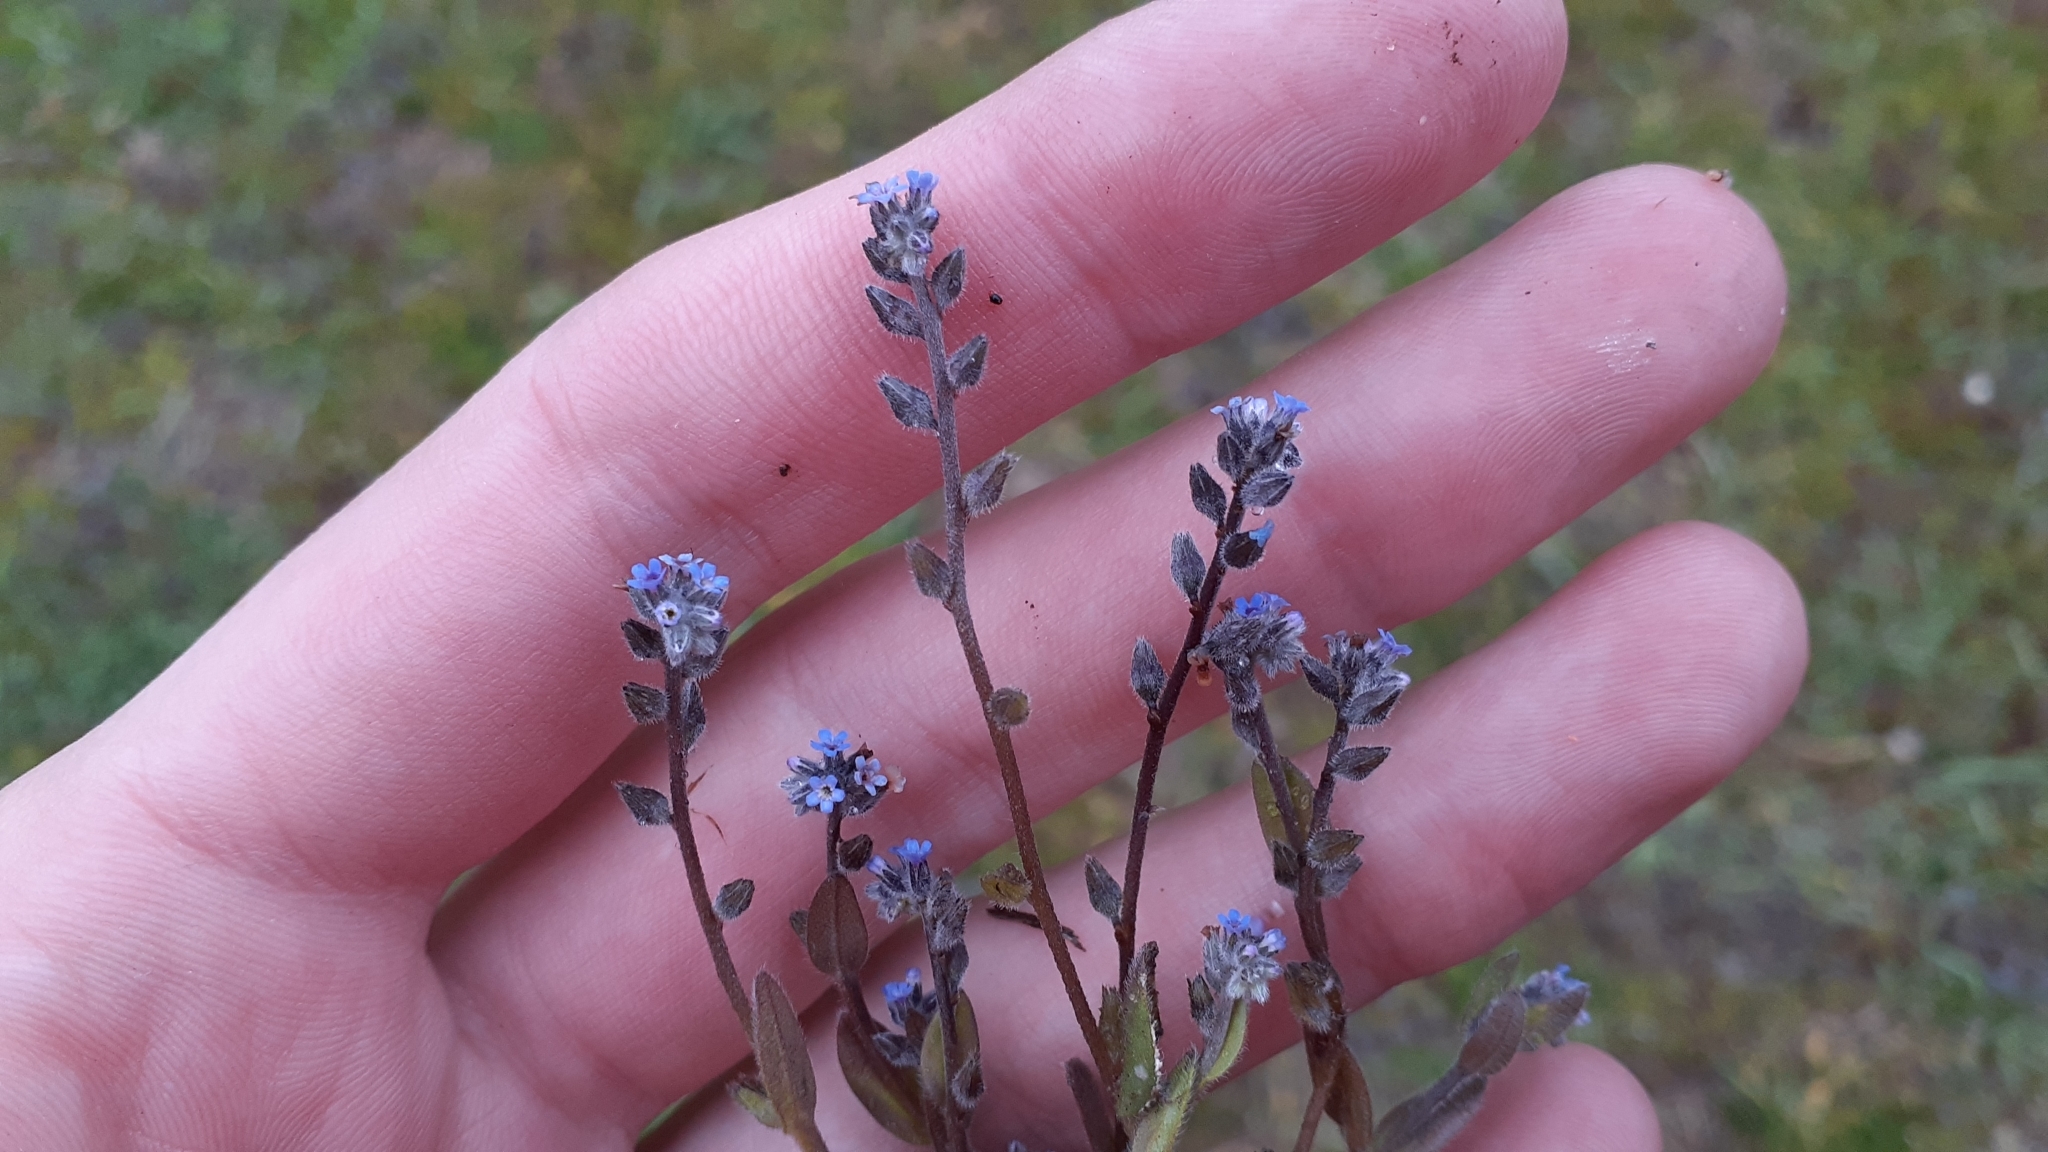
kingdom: Plantae
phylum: Tracheophyta
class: Magnoliopsida
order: Boraginales
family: Boraginaceae
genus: Myosotis
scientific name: Myosotis stricta
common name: Strict forget-me-not
